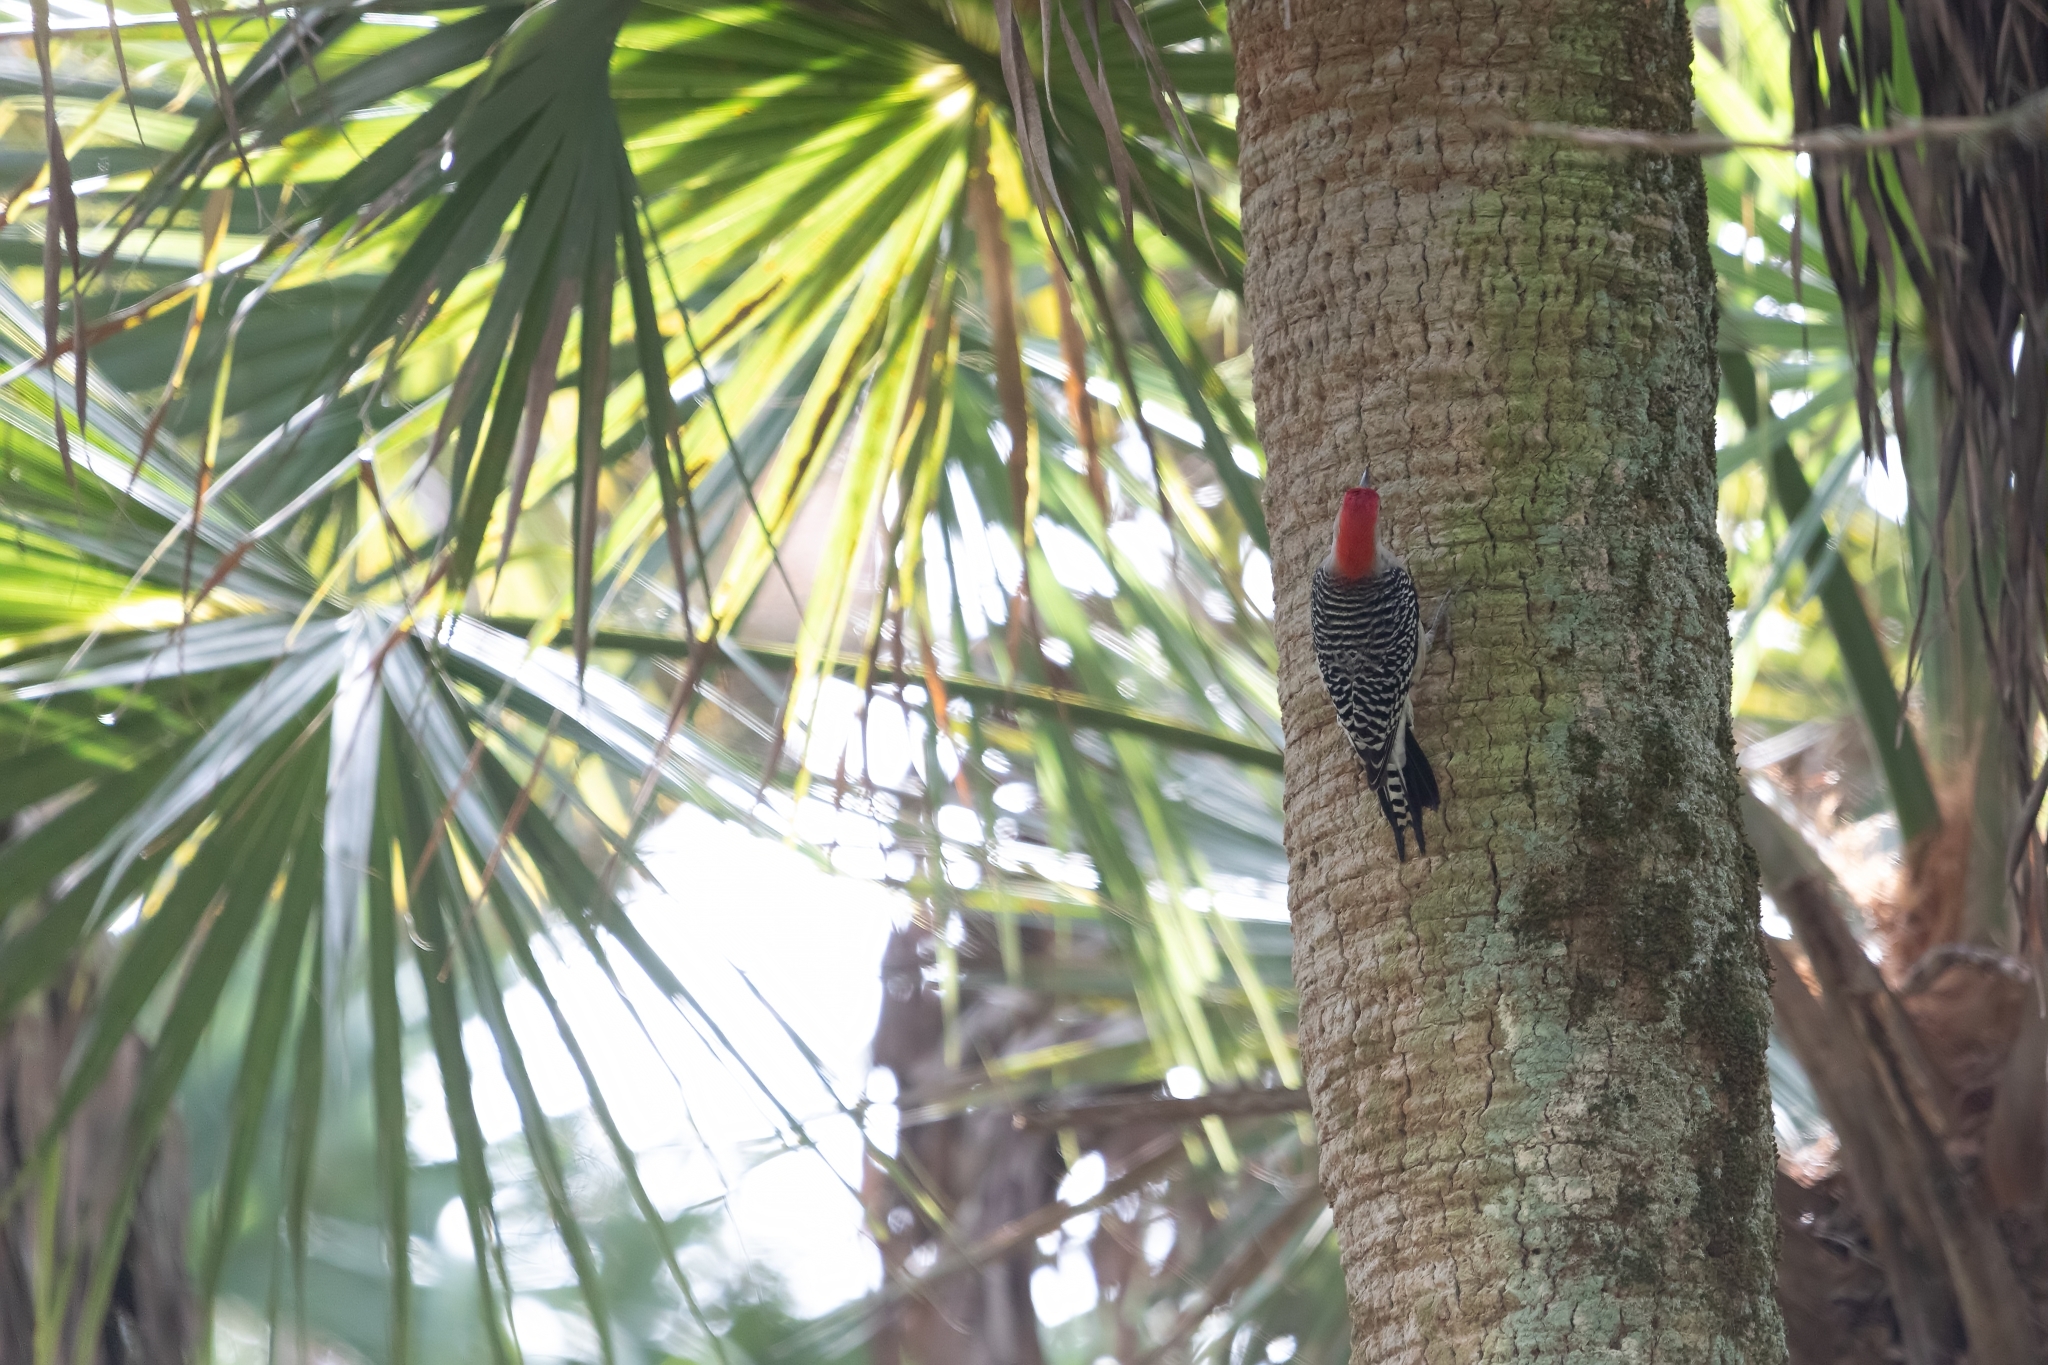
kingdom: Animalia
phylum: Chordata
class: Aves
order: Piciformes
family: Picidae
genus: Melanerpes
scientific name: Melanerpes carolinus
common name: Red-bellied woodpecker
